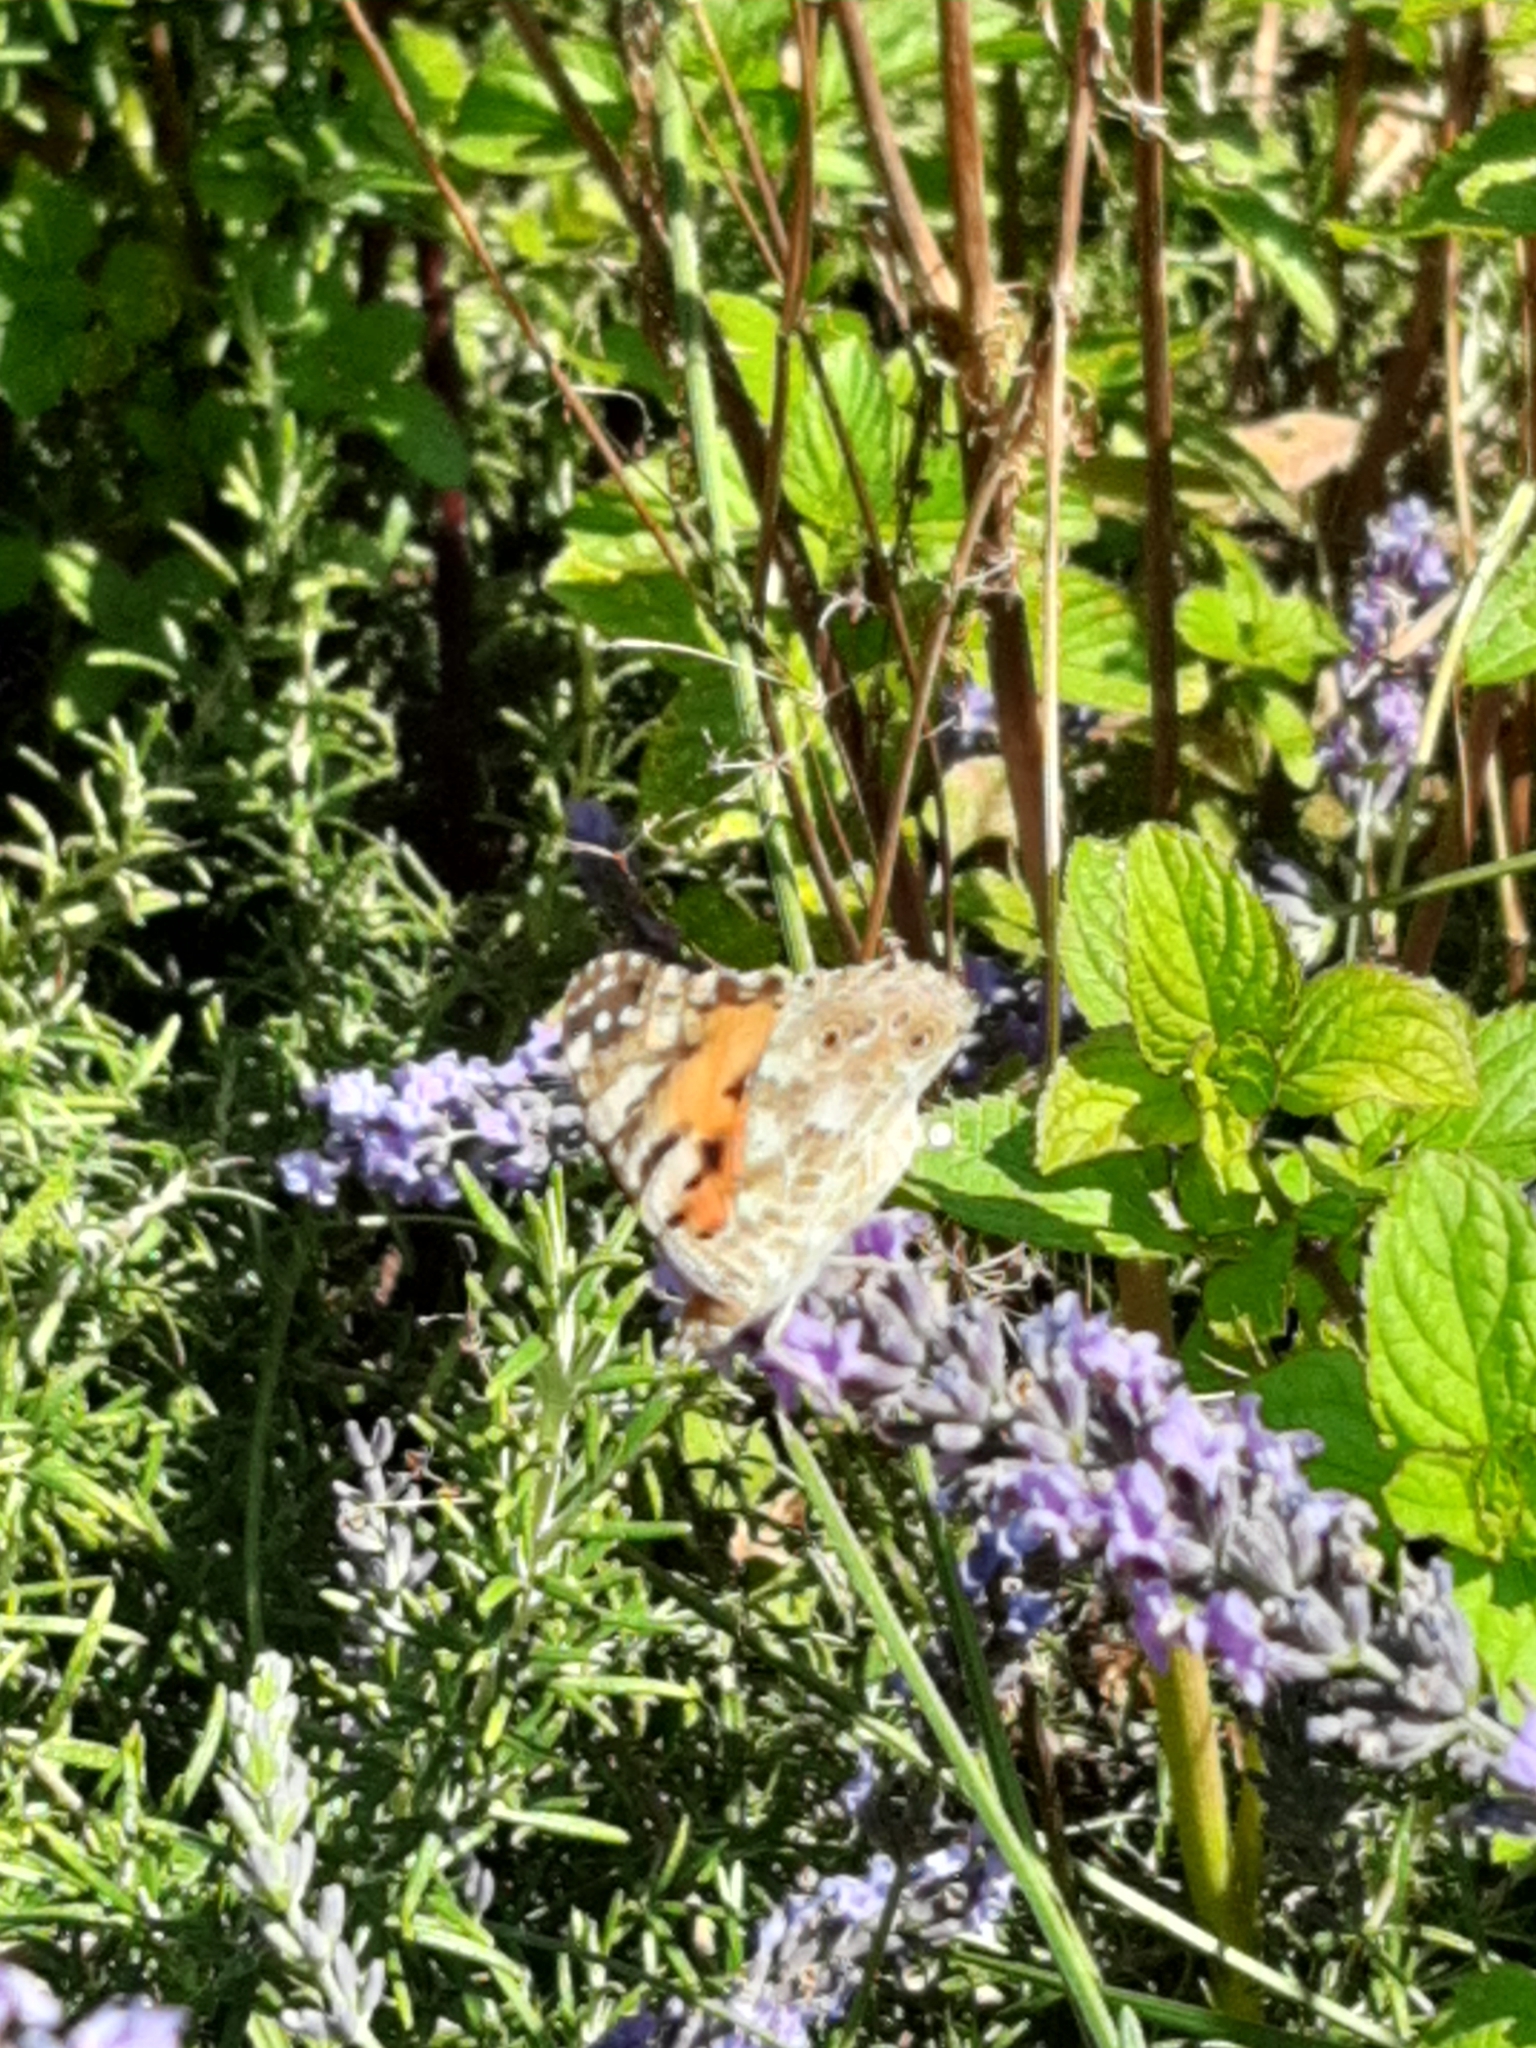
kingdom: Animalia
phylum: Arthropoda
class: Insecta
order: Lepidoptera
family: Nymphalidae
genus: Vanessa
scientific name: Vanessa cardui
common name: Painted lady
